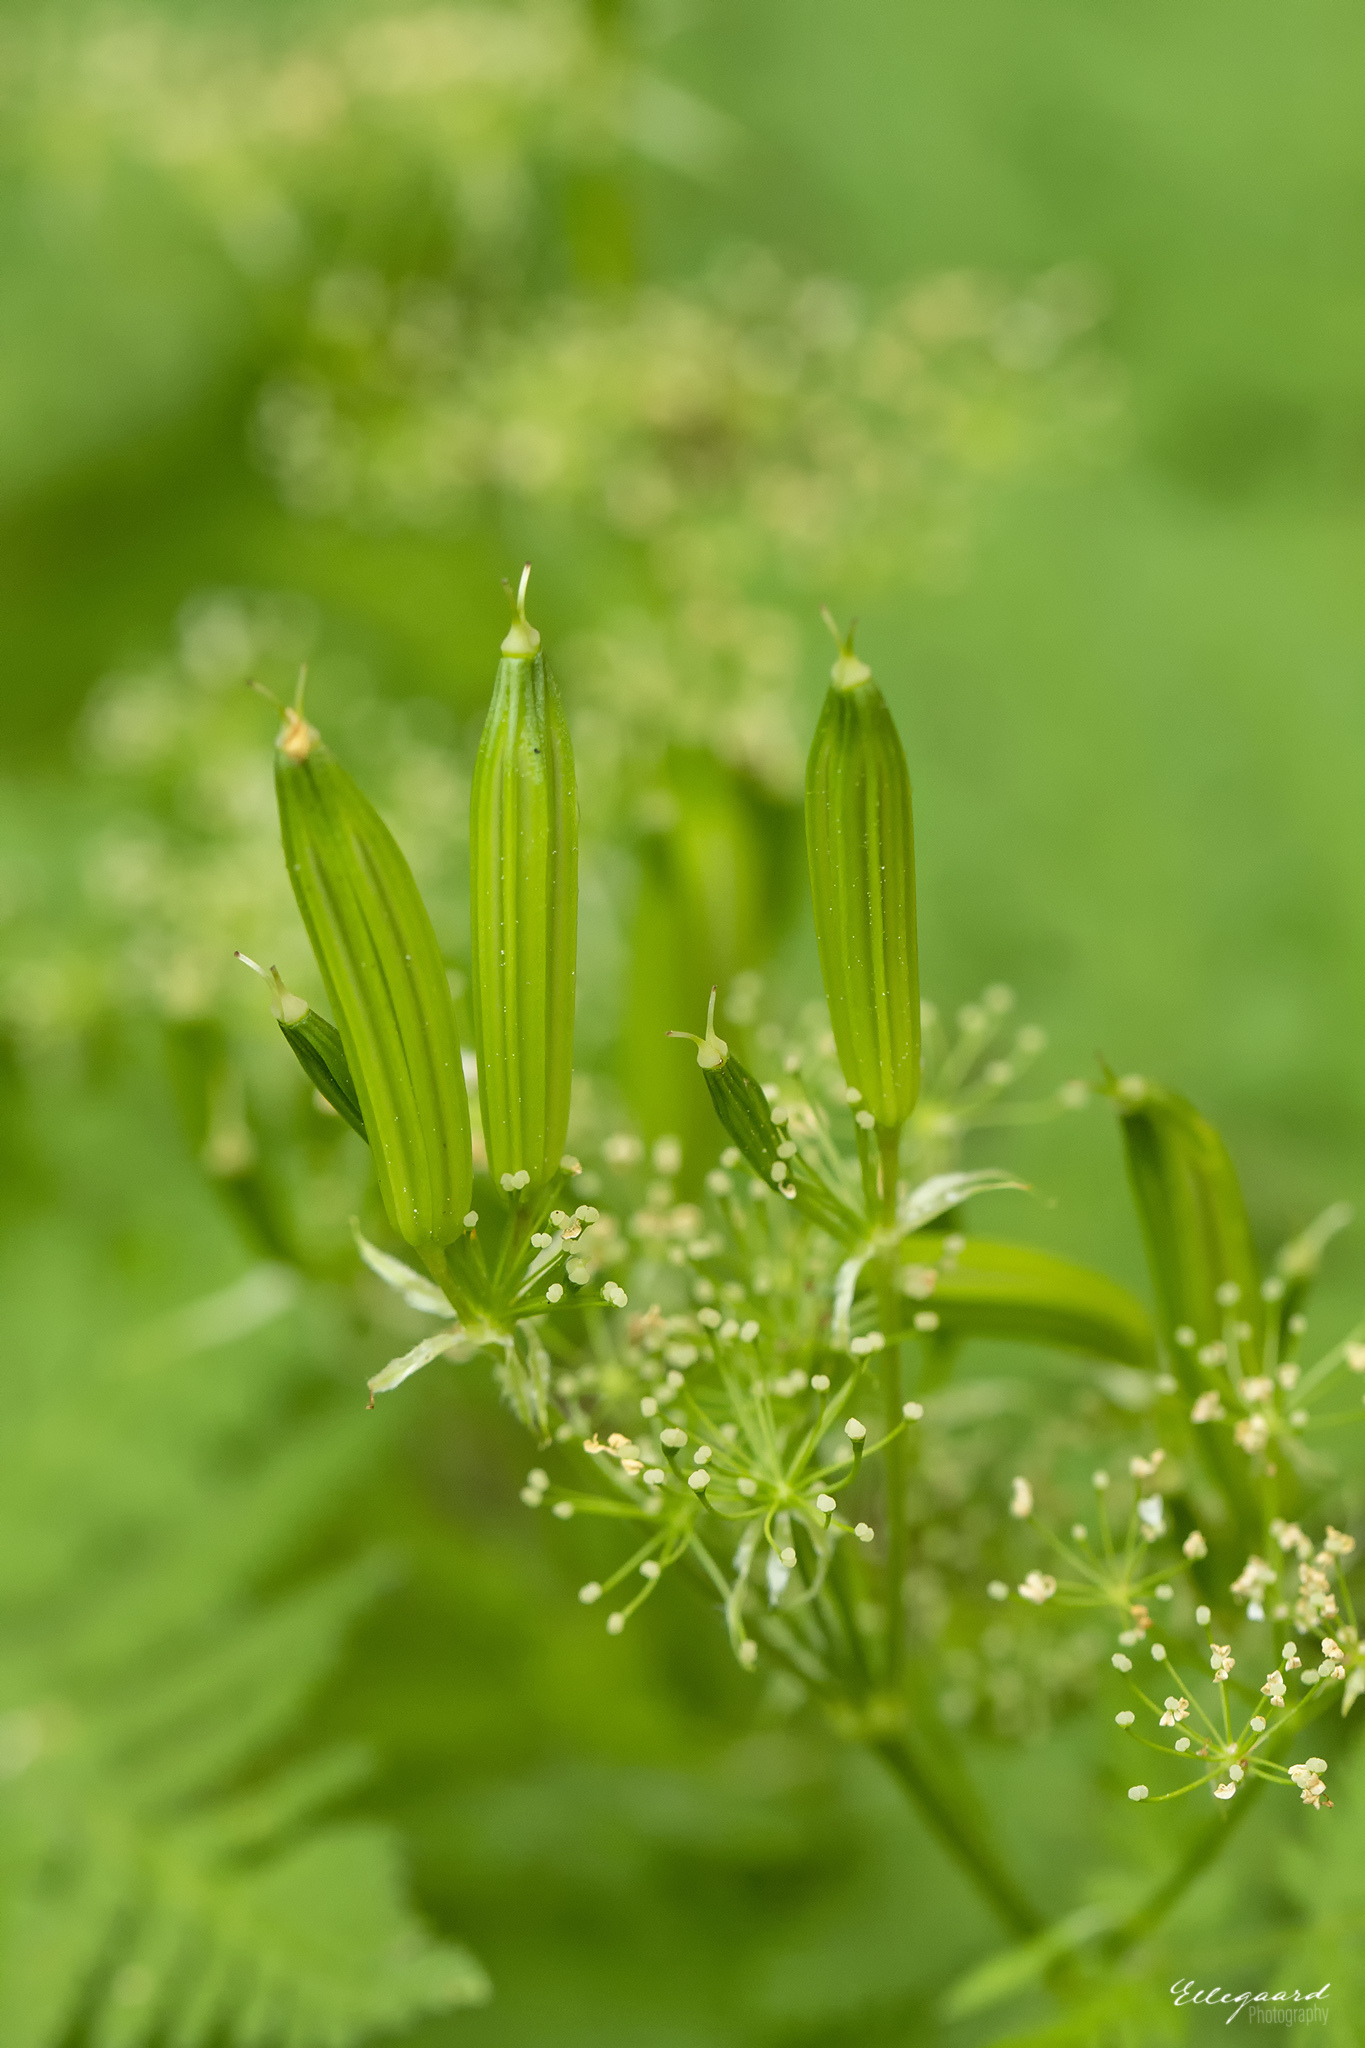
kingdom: Plantae
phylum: Tracheophyta
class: Magnoliopsida
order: Apiales
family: Apiaceae
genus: Myrrhis
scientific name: Myrrhis odorata
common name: Sweet cicely
